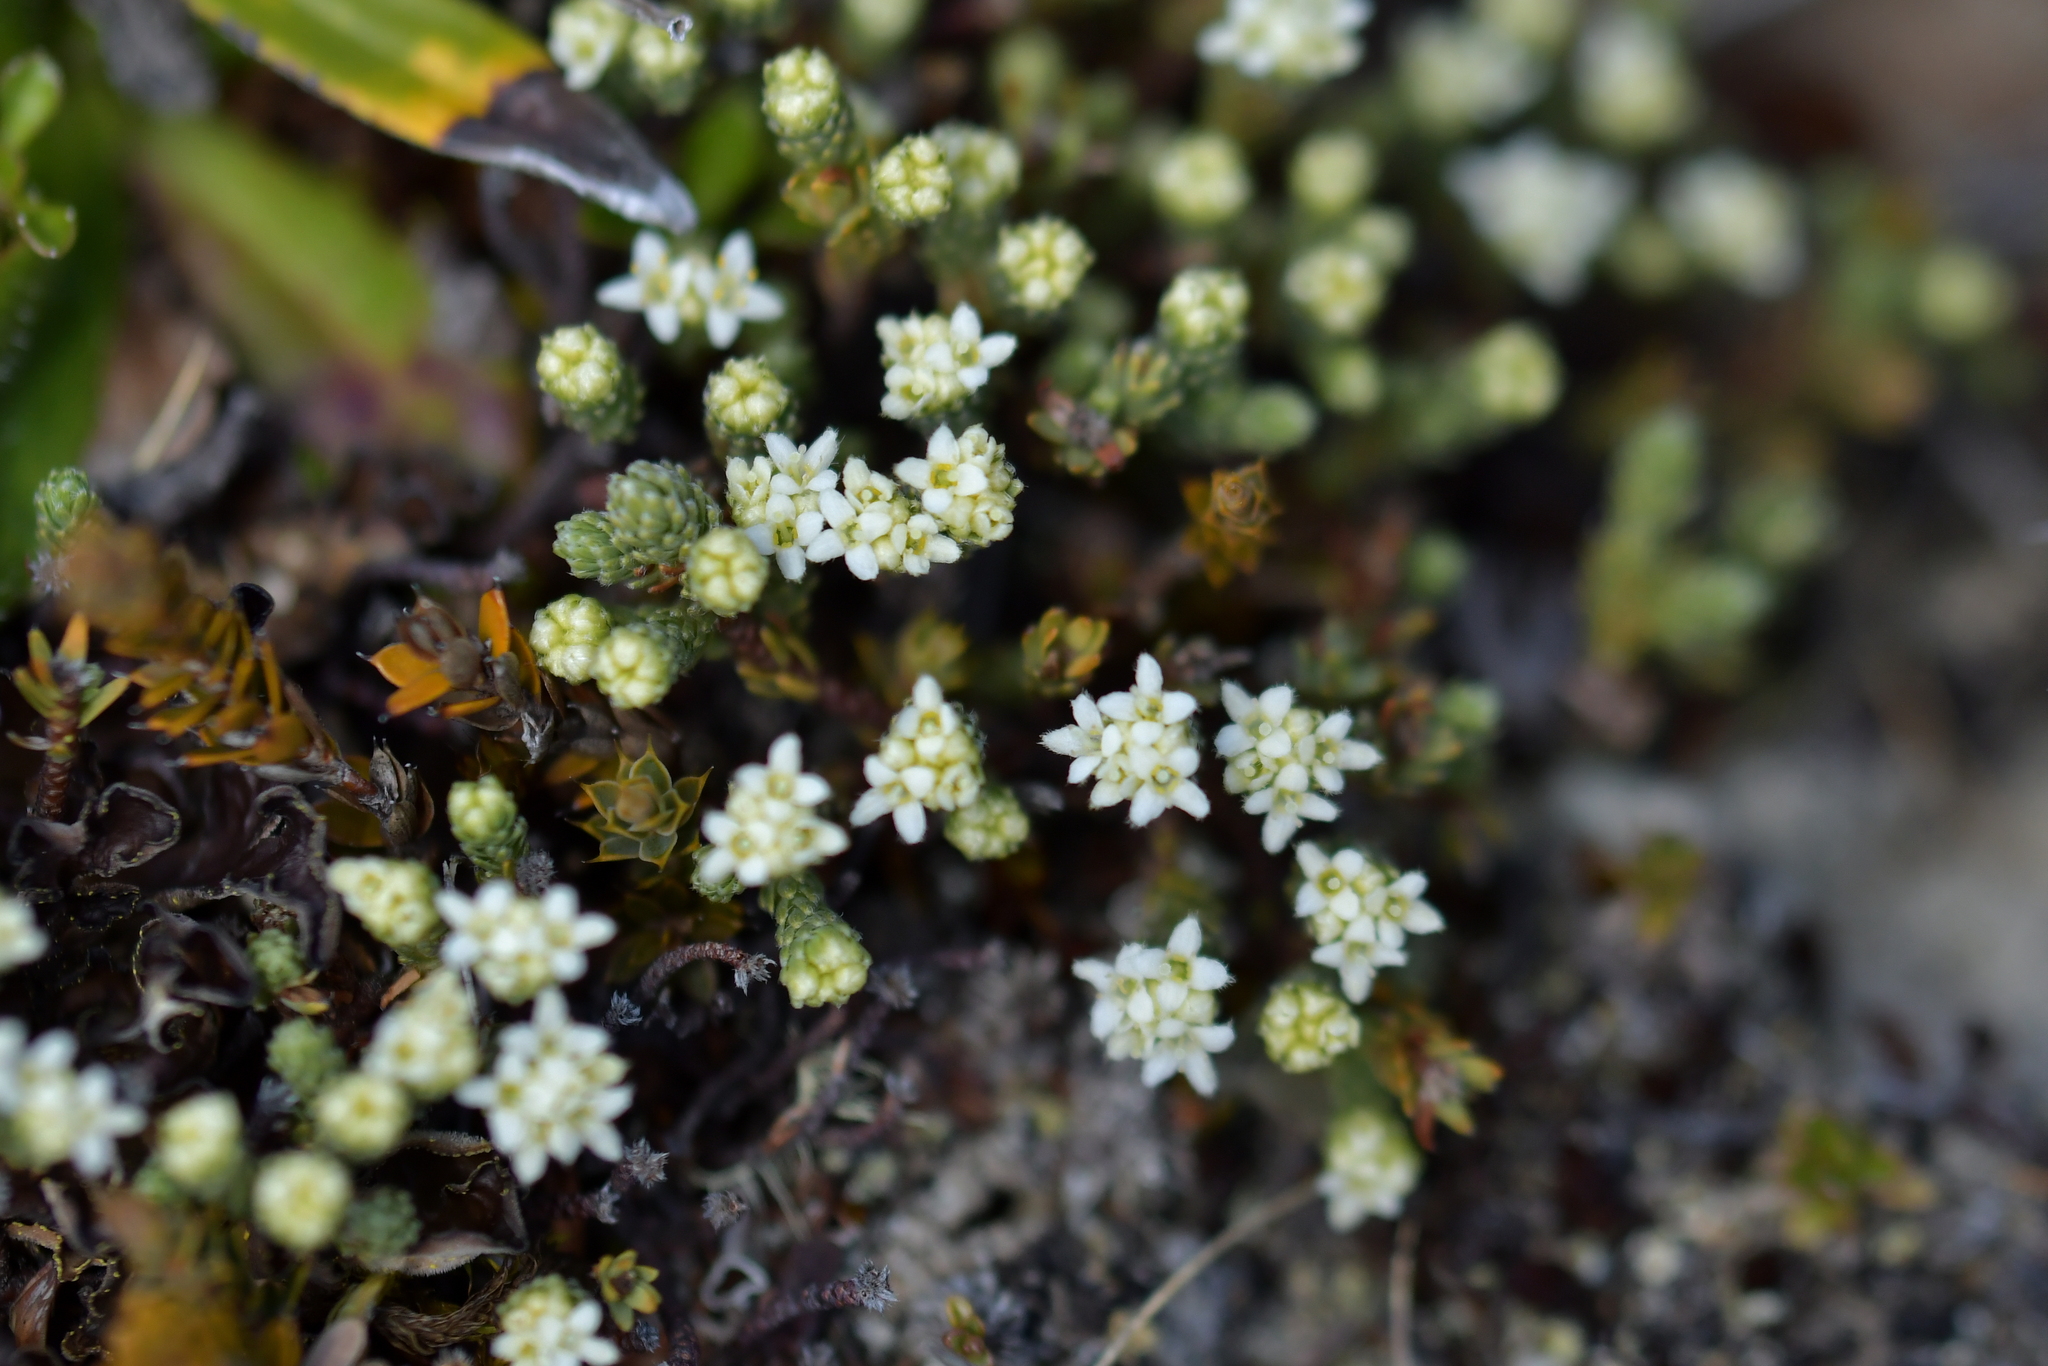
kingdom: Plantae
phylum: Tracheophyta
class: Magnoliopsida
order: Malvales
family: Thymelaeaceae
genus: Kelleria
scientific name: Kelleria dieffenbachii
